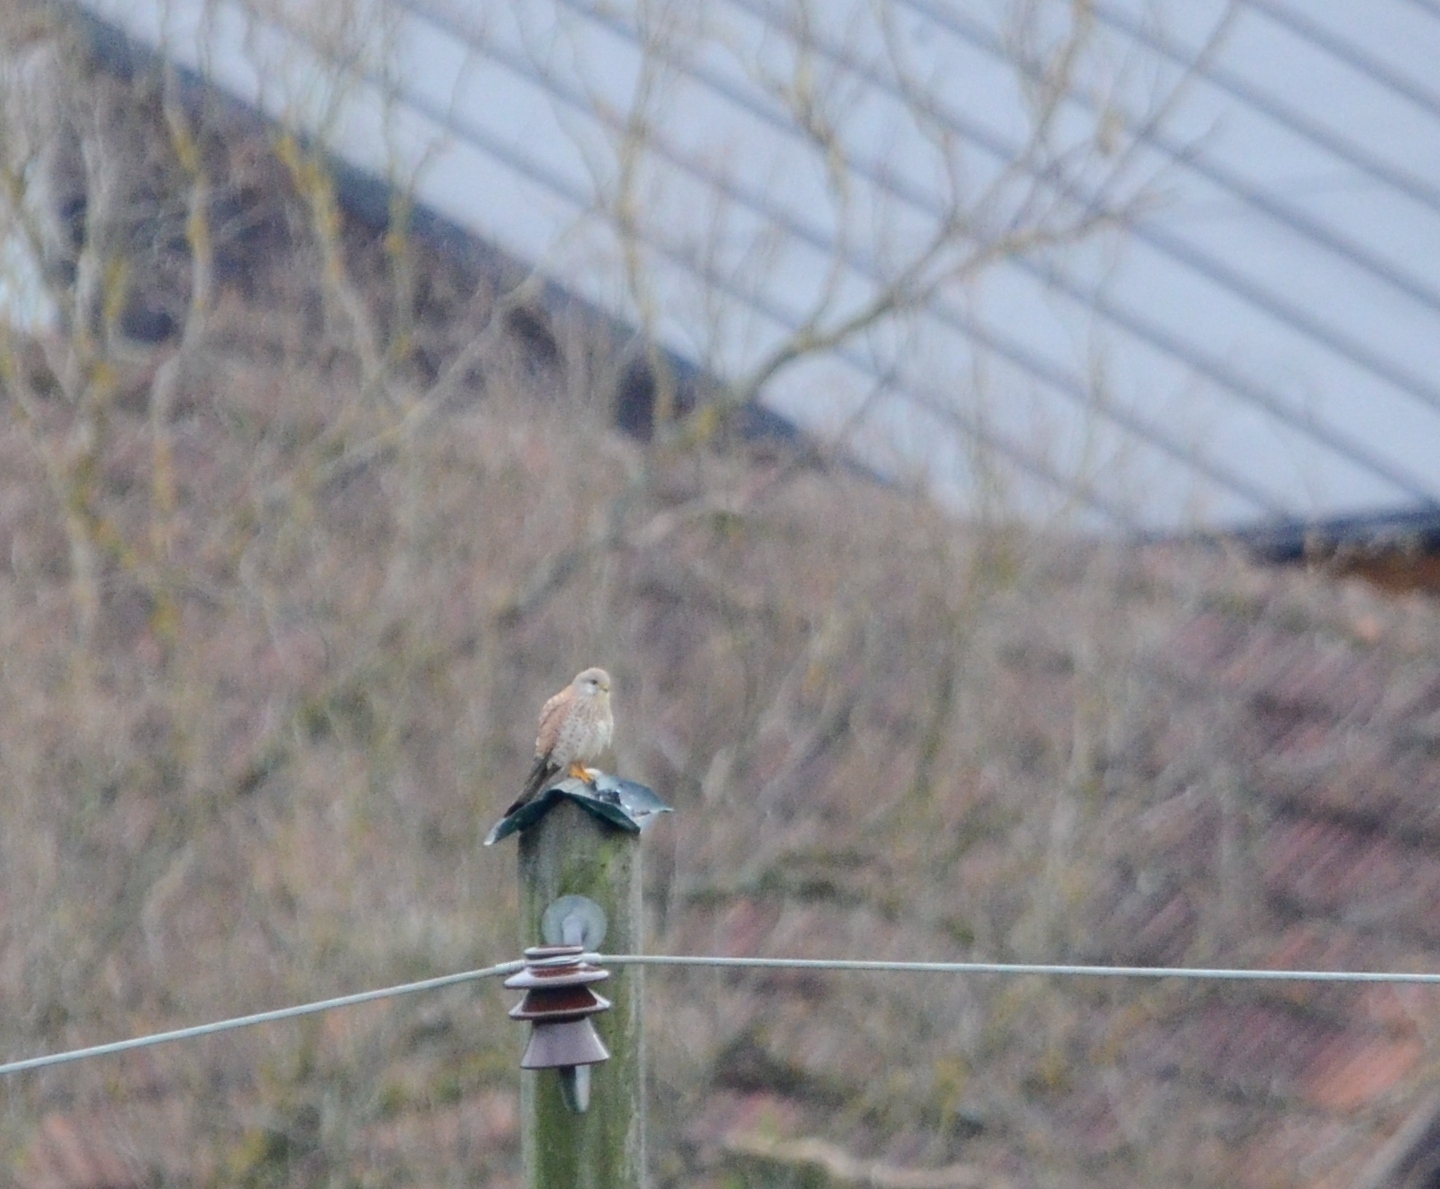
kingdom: Animalia
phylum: Chordata
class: Aves
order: Falconiformes
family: Falconidae
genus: Falco
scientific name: Falco tinnunculus
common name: Common kestrel
